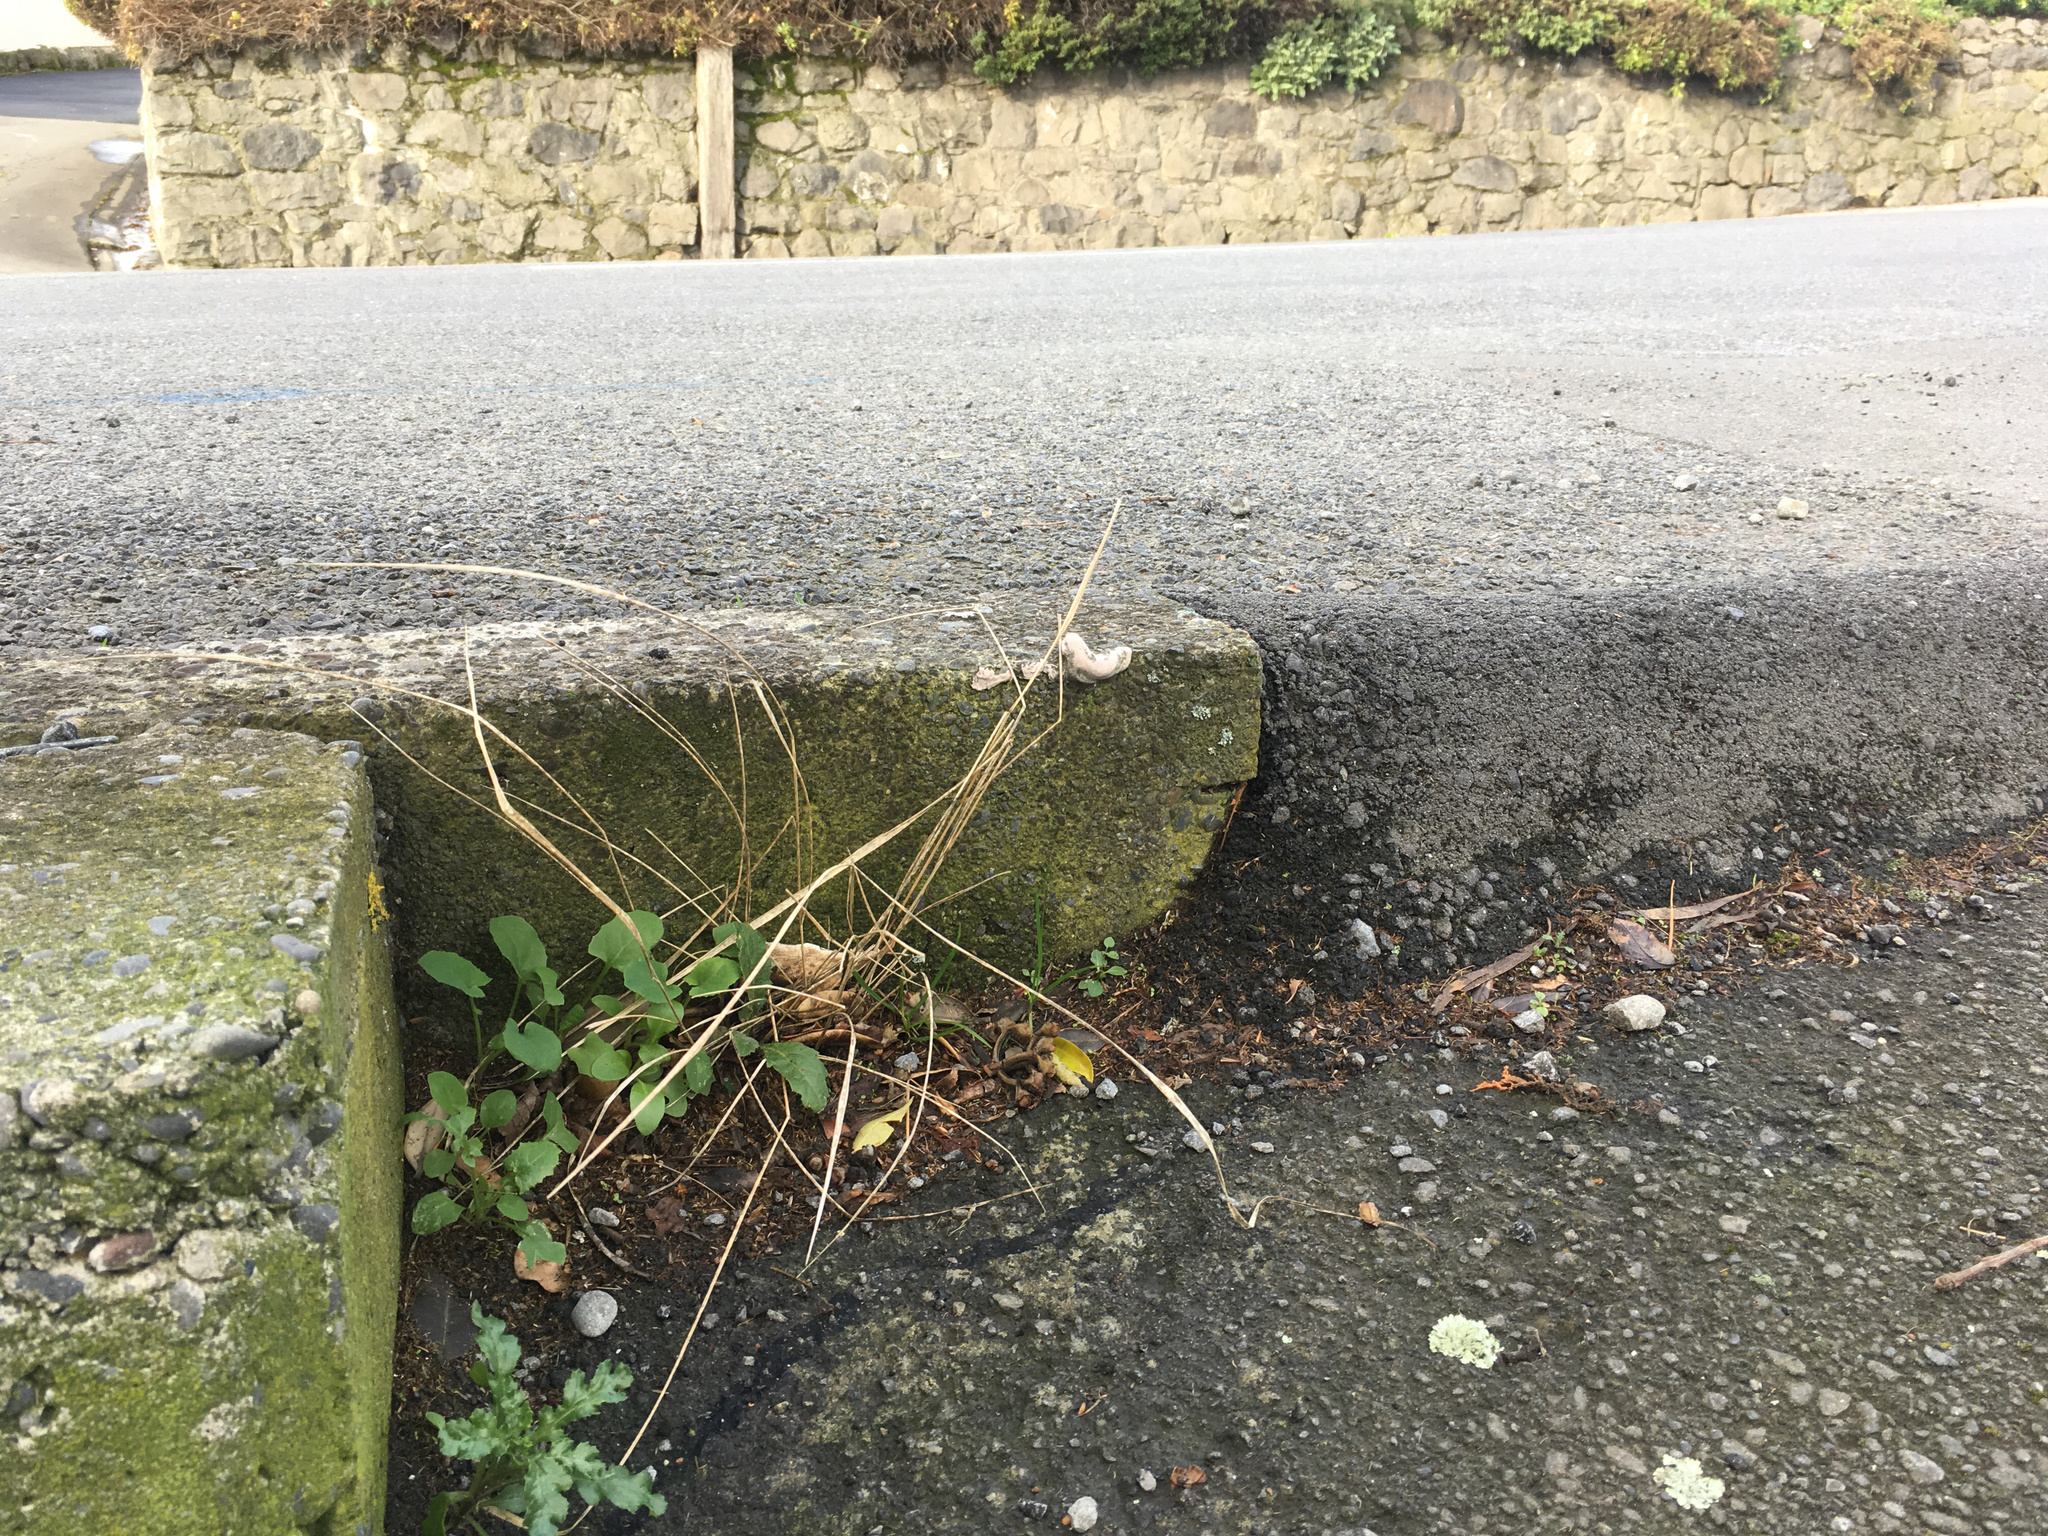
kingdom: Plantae
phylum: Tracheophyta
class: Magnoliopsida
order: Asterales
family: Asteraceae
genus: Senecio
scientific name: Senecio minimus
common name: Toothed fireweed
